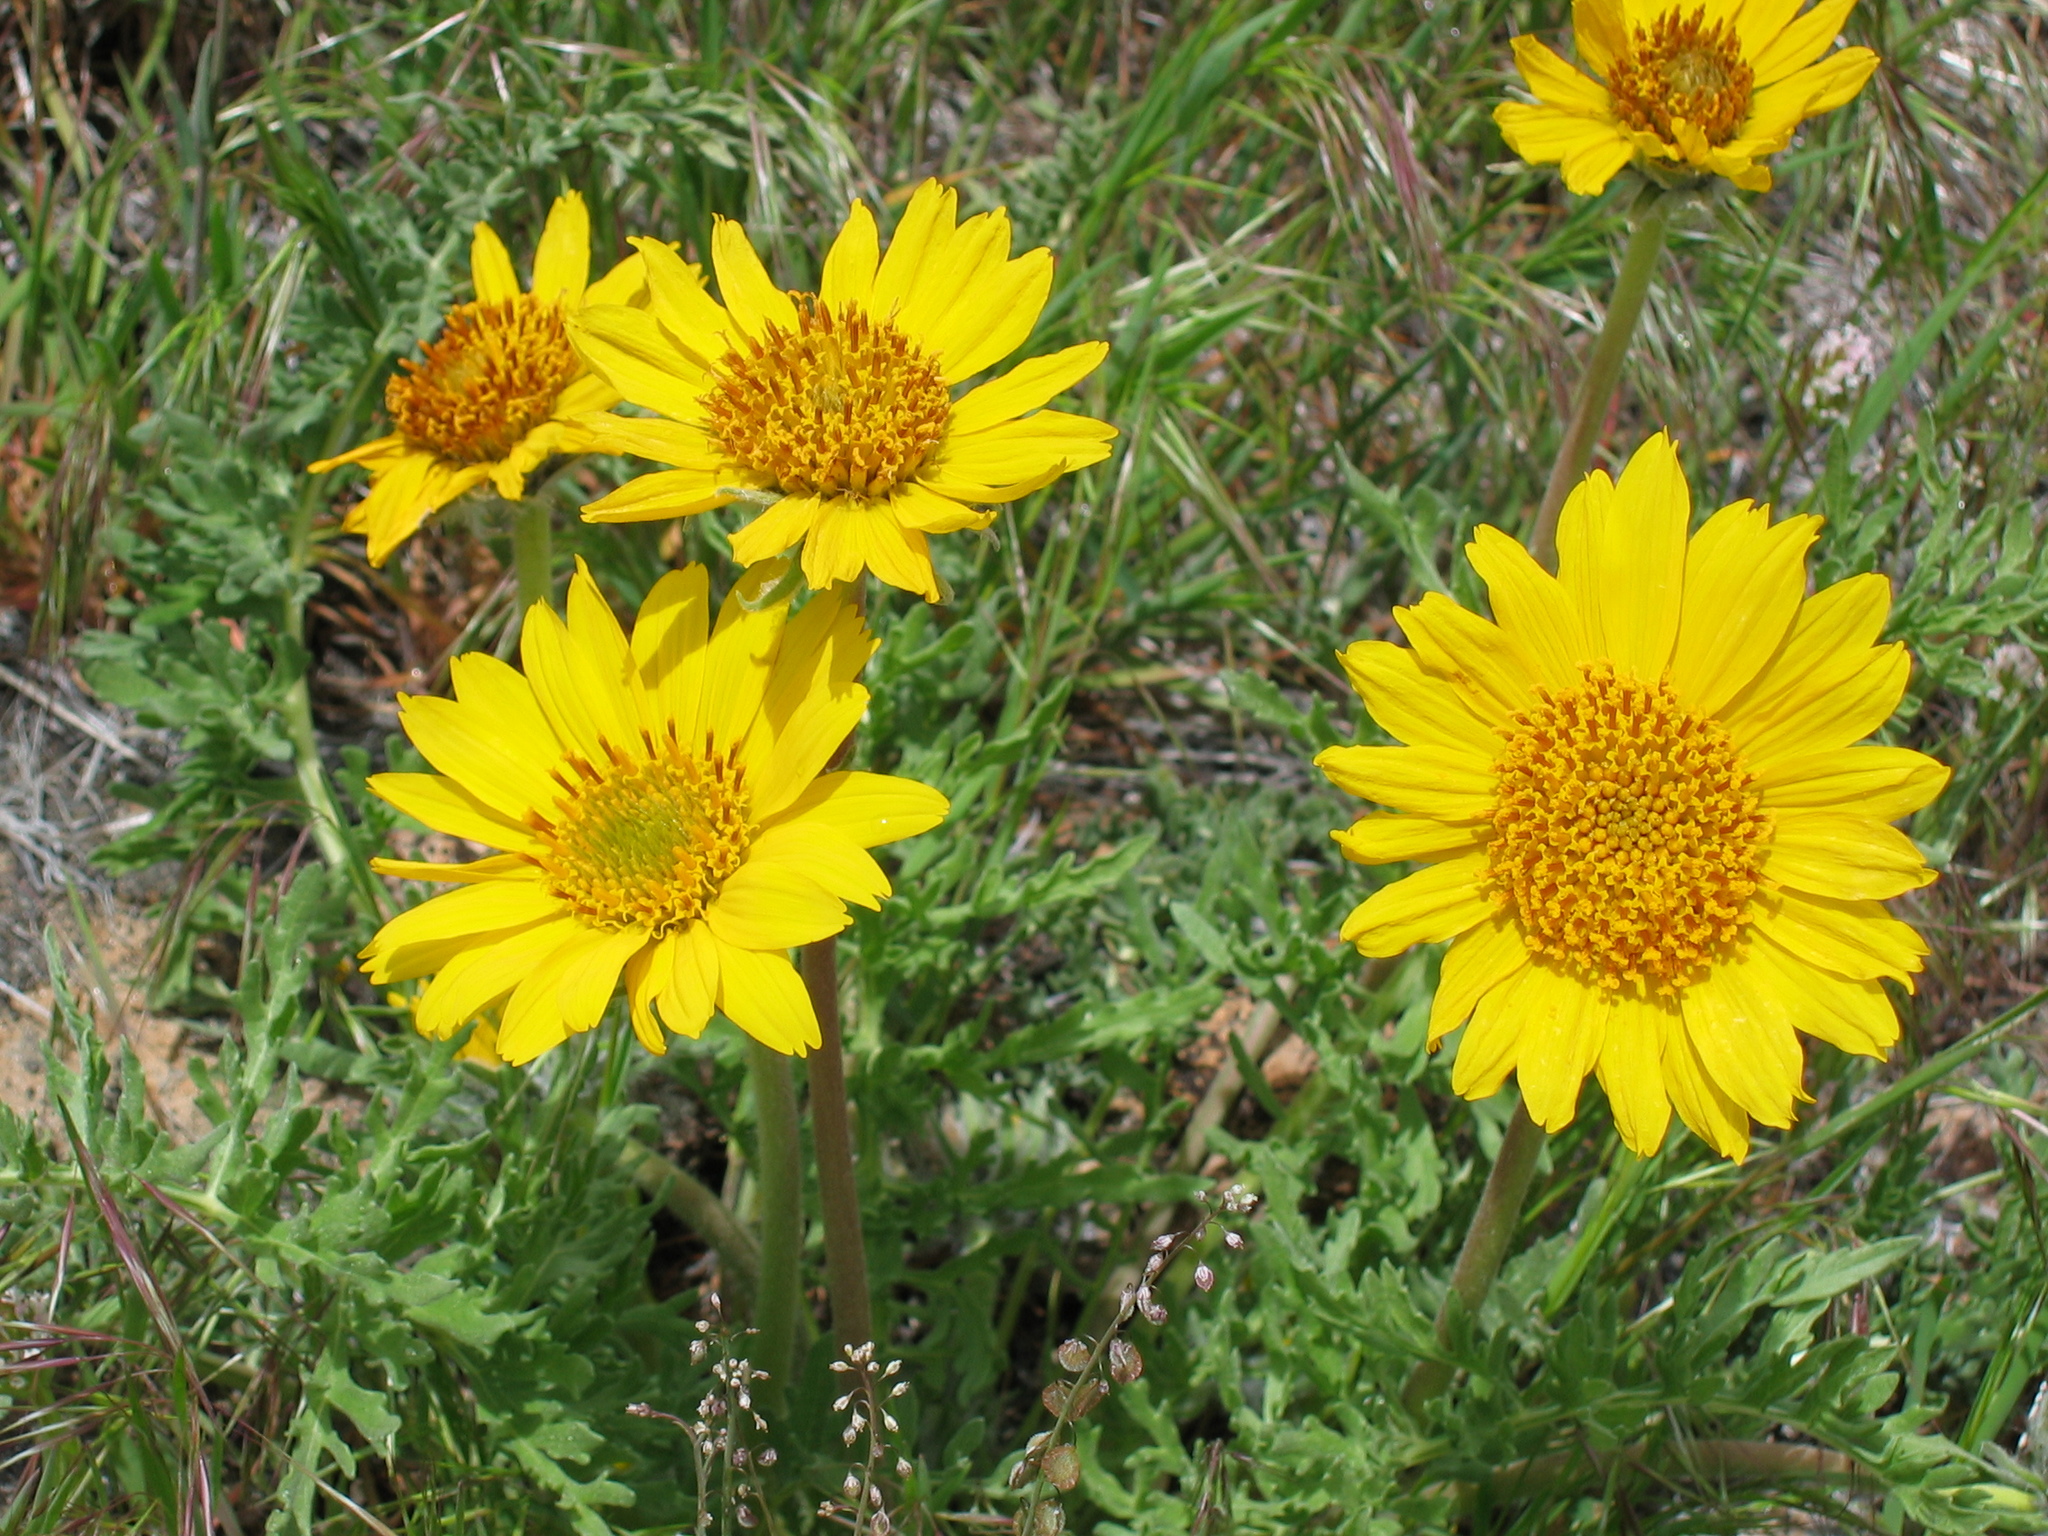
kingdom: Plantae
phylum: Tracheophyta
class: Magnoliopsida
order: Asterales
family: Asteraceae
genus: Balsamorhiza
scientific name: Balsamorhiza hookeri
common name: Hooker's balsamroot
